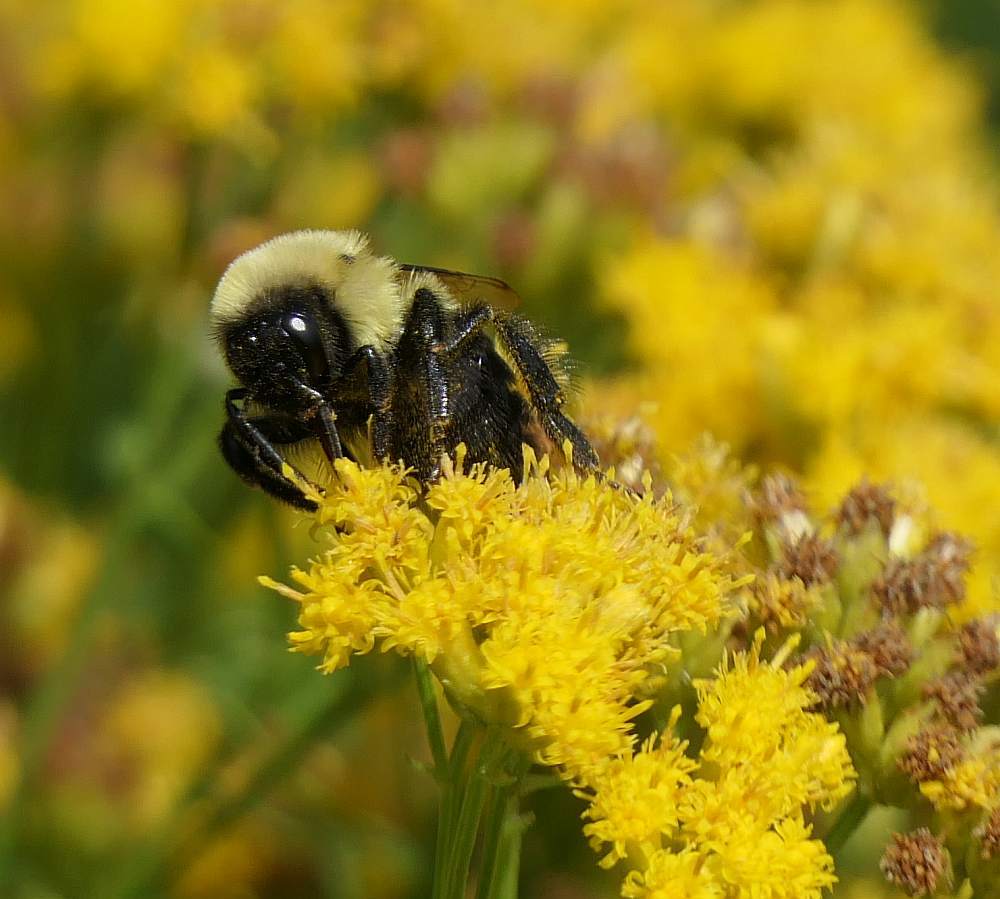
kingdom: Animalia
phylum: Arthropoda
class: Insecta
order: Hymenoptera
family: Apidae
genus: Bombus
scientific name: Bombus impatiens
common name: Common eastern bumble bee
